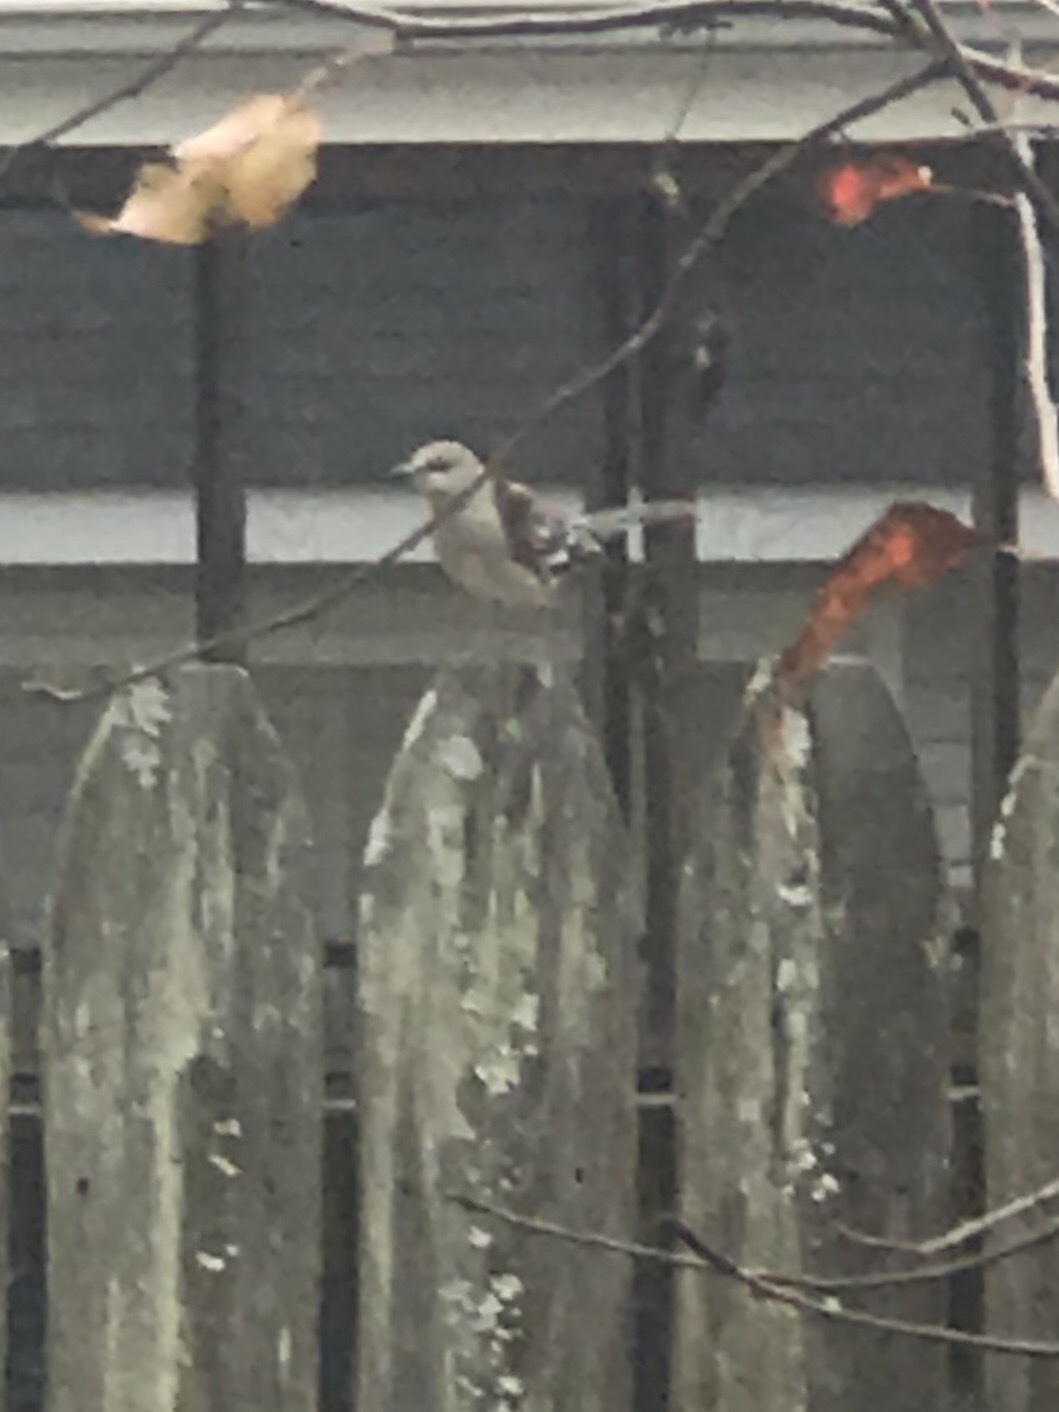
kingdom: Animalia
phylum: Chordata
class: Aves
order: Passeriformes
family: Mimidae
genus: Mimus
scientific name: Mimus polyglottos
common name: Northern mockingbird
